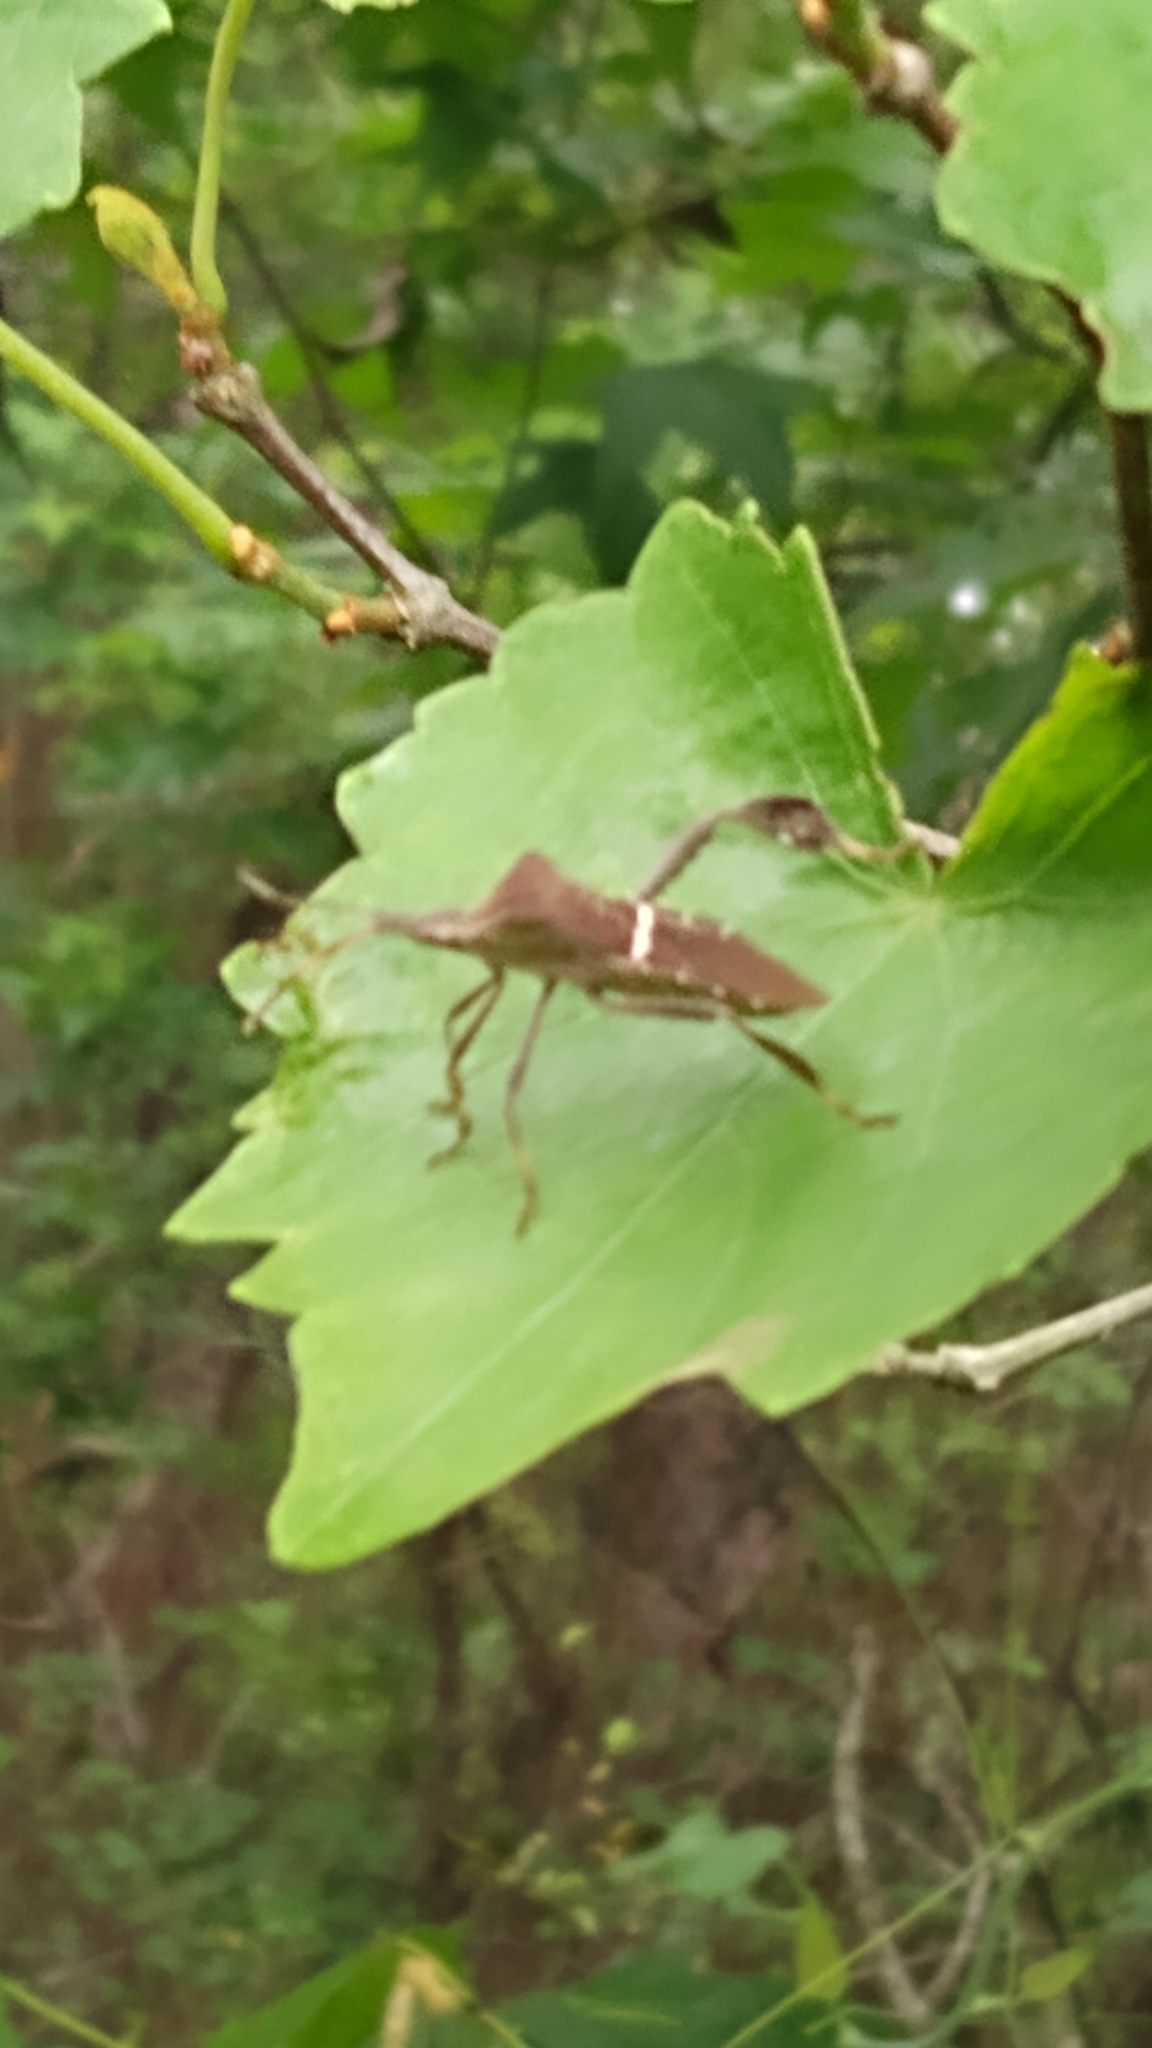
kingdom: Animalia
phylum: Arthropoda
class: Insecta
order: Hemiptera
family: Coreidae
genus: Leptoglossus
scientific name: Leptoglossus phyllopus
